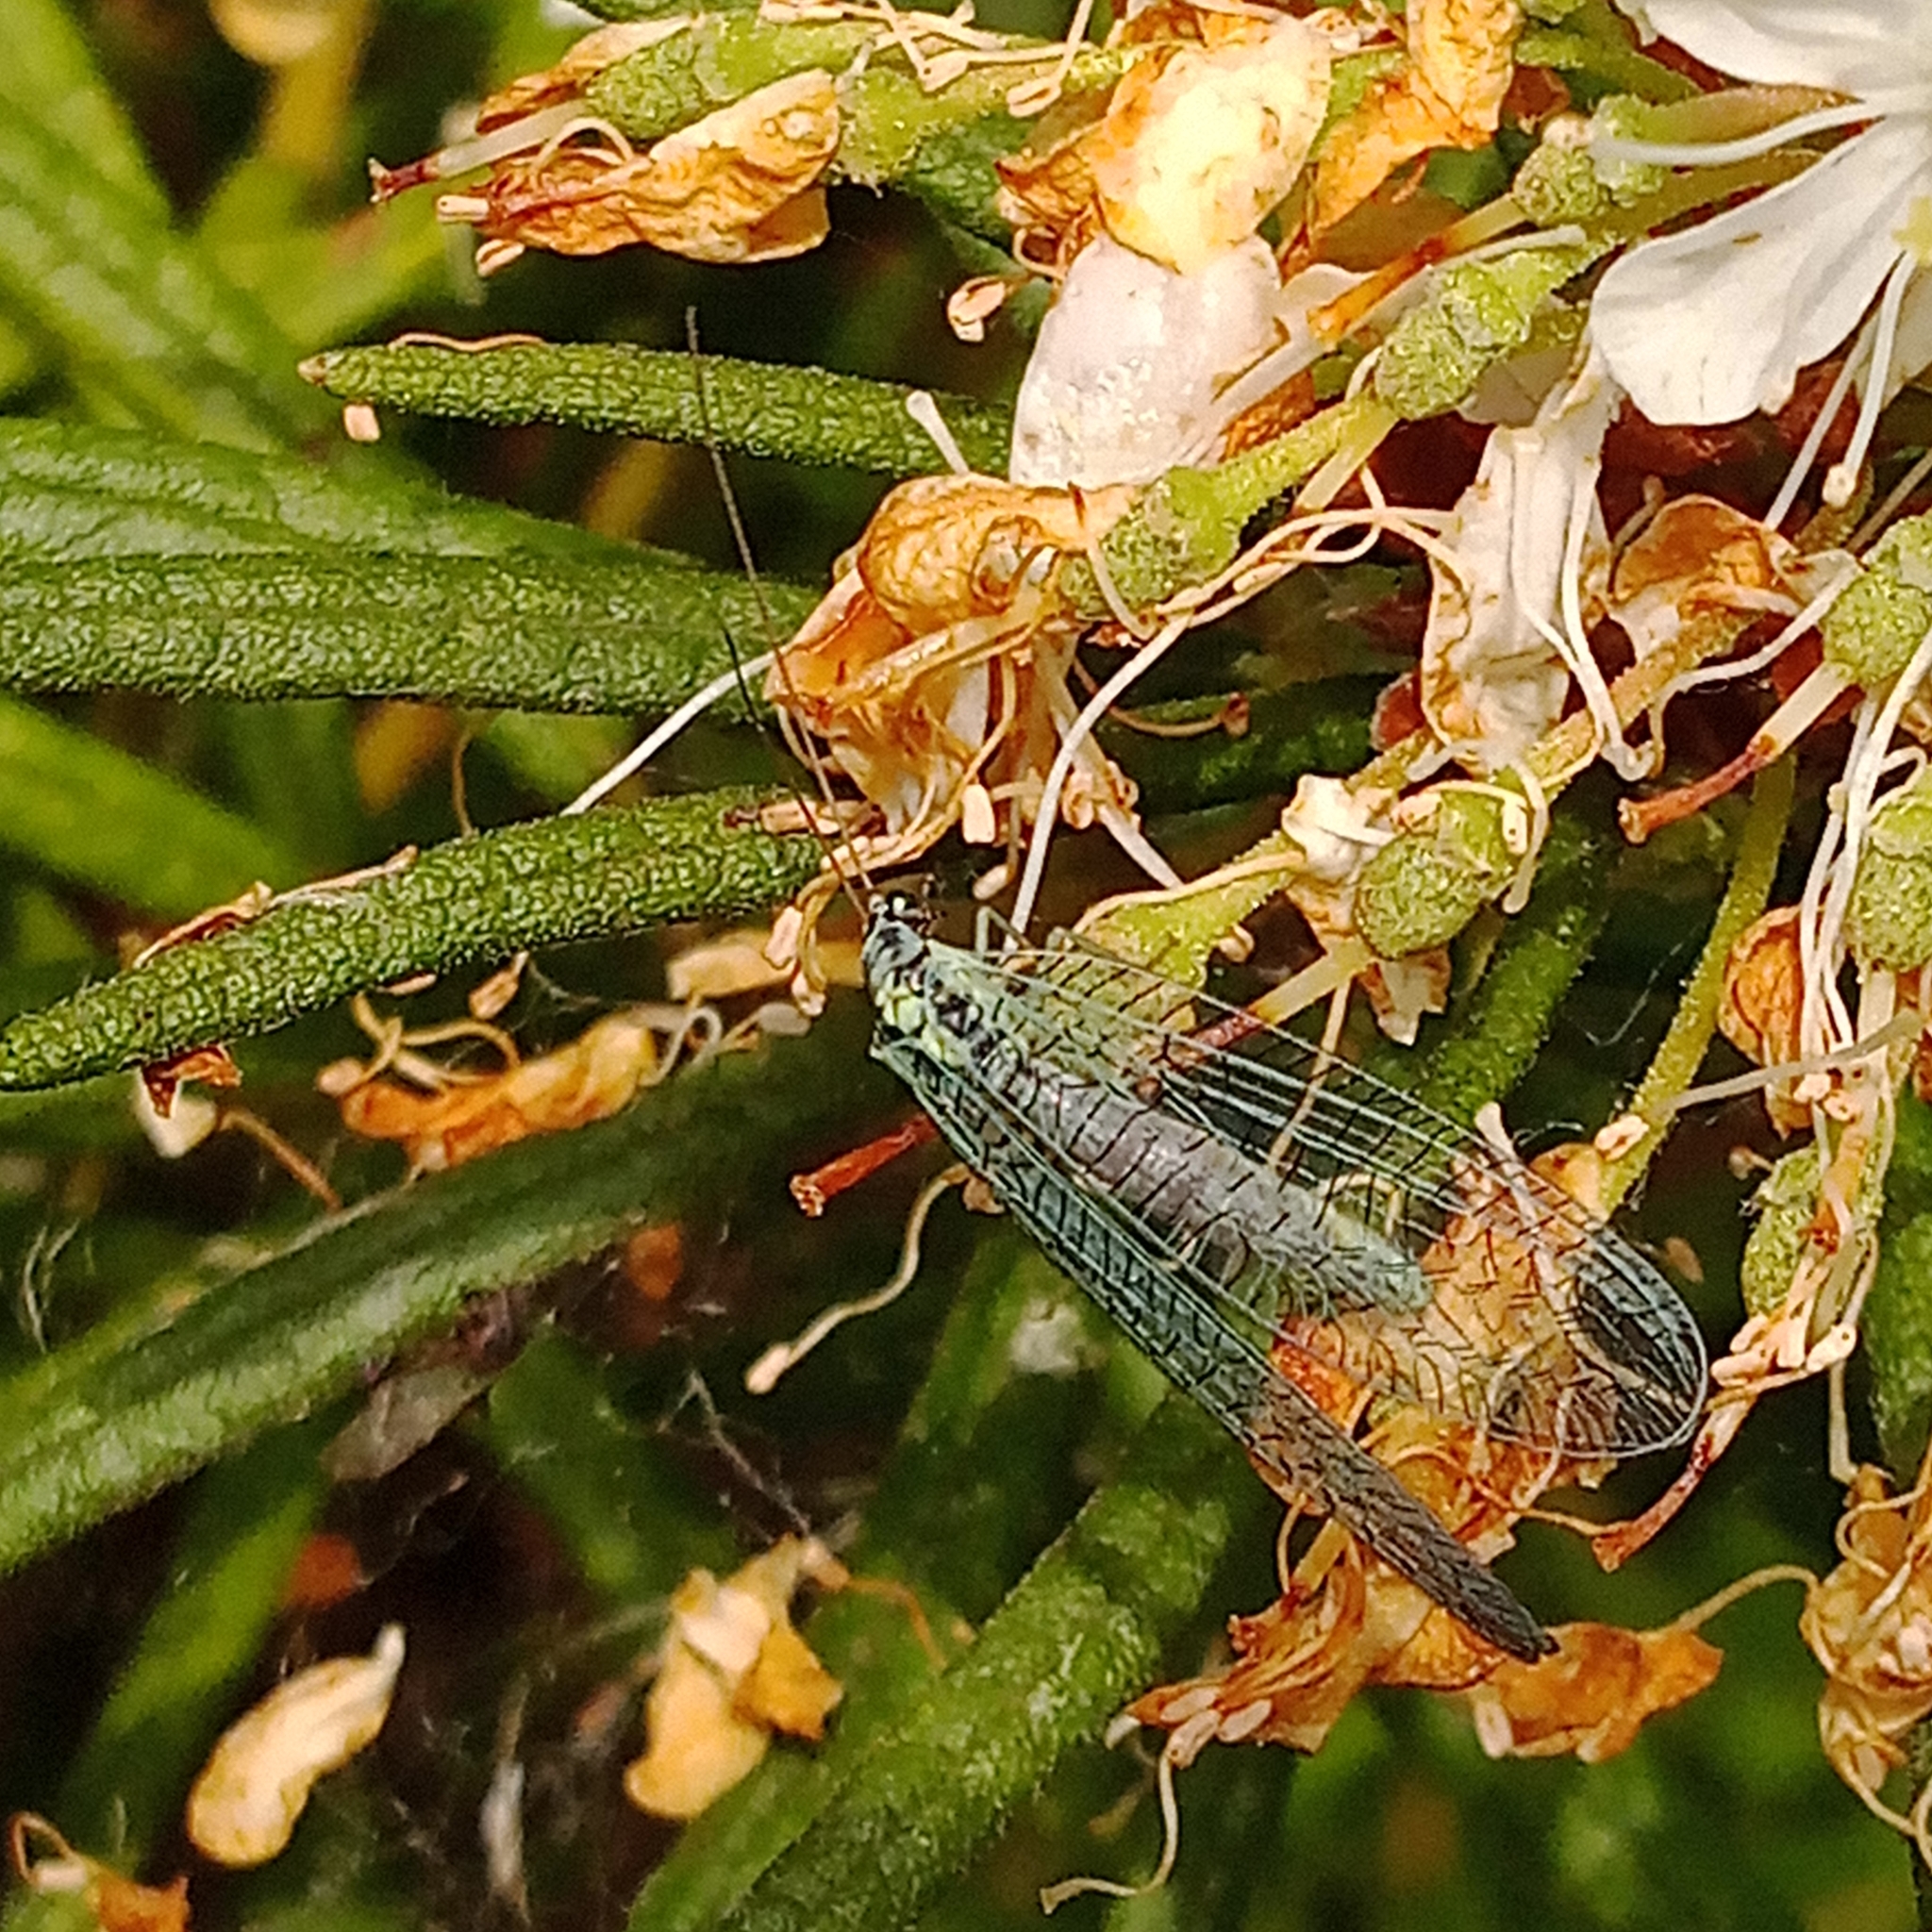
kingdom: Animalia
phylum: Arthropoda
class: Insecta
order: Neuroptera
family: Chrysopidae
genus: Chrysopa
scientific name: Chrysopa perla
